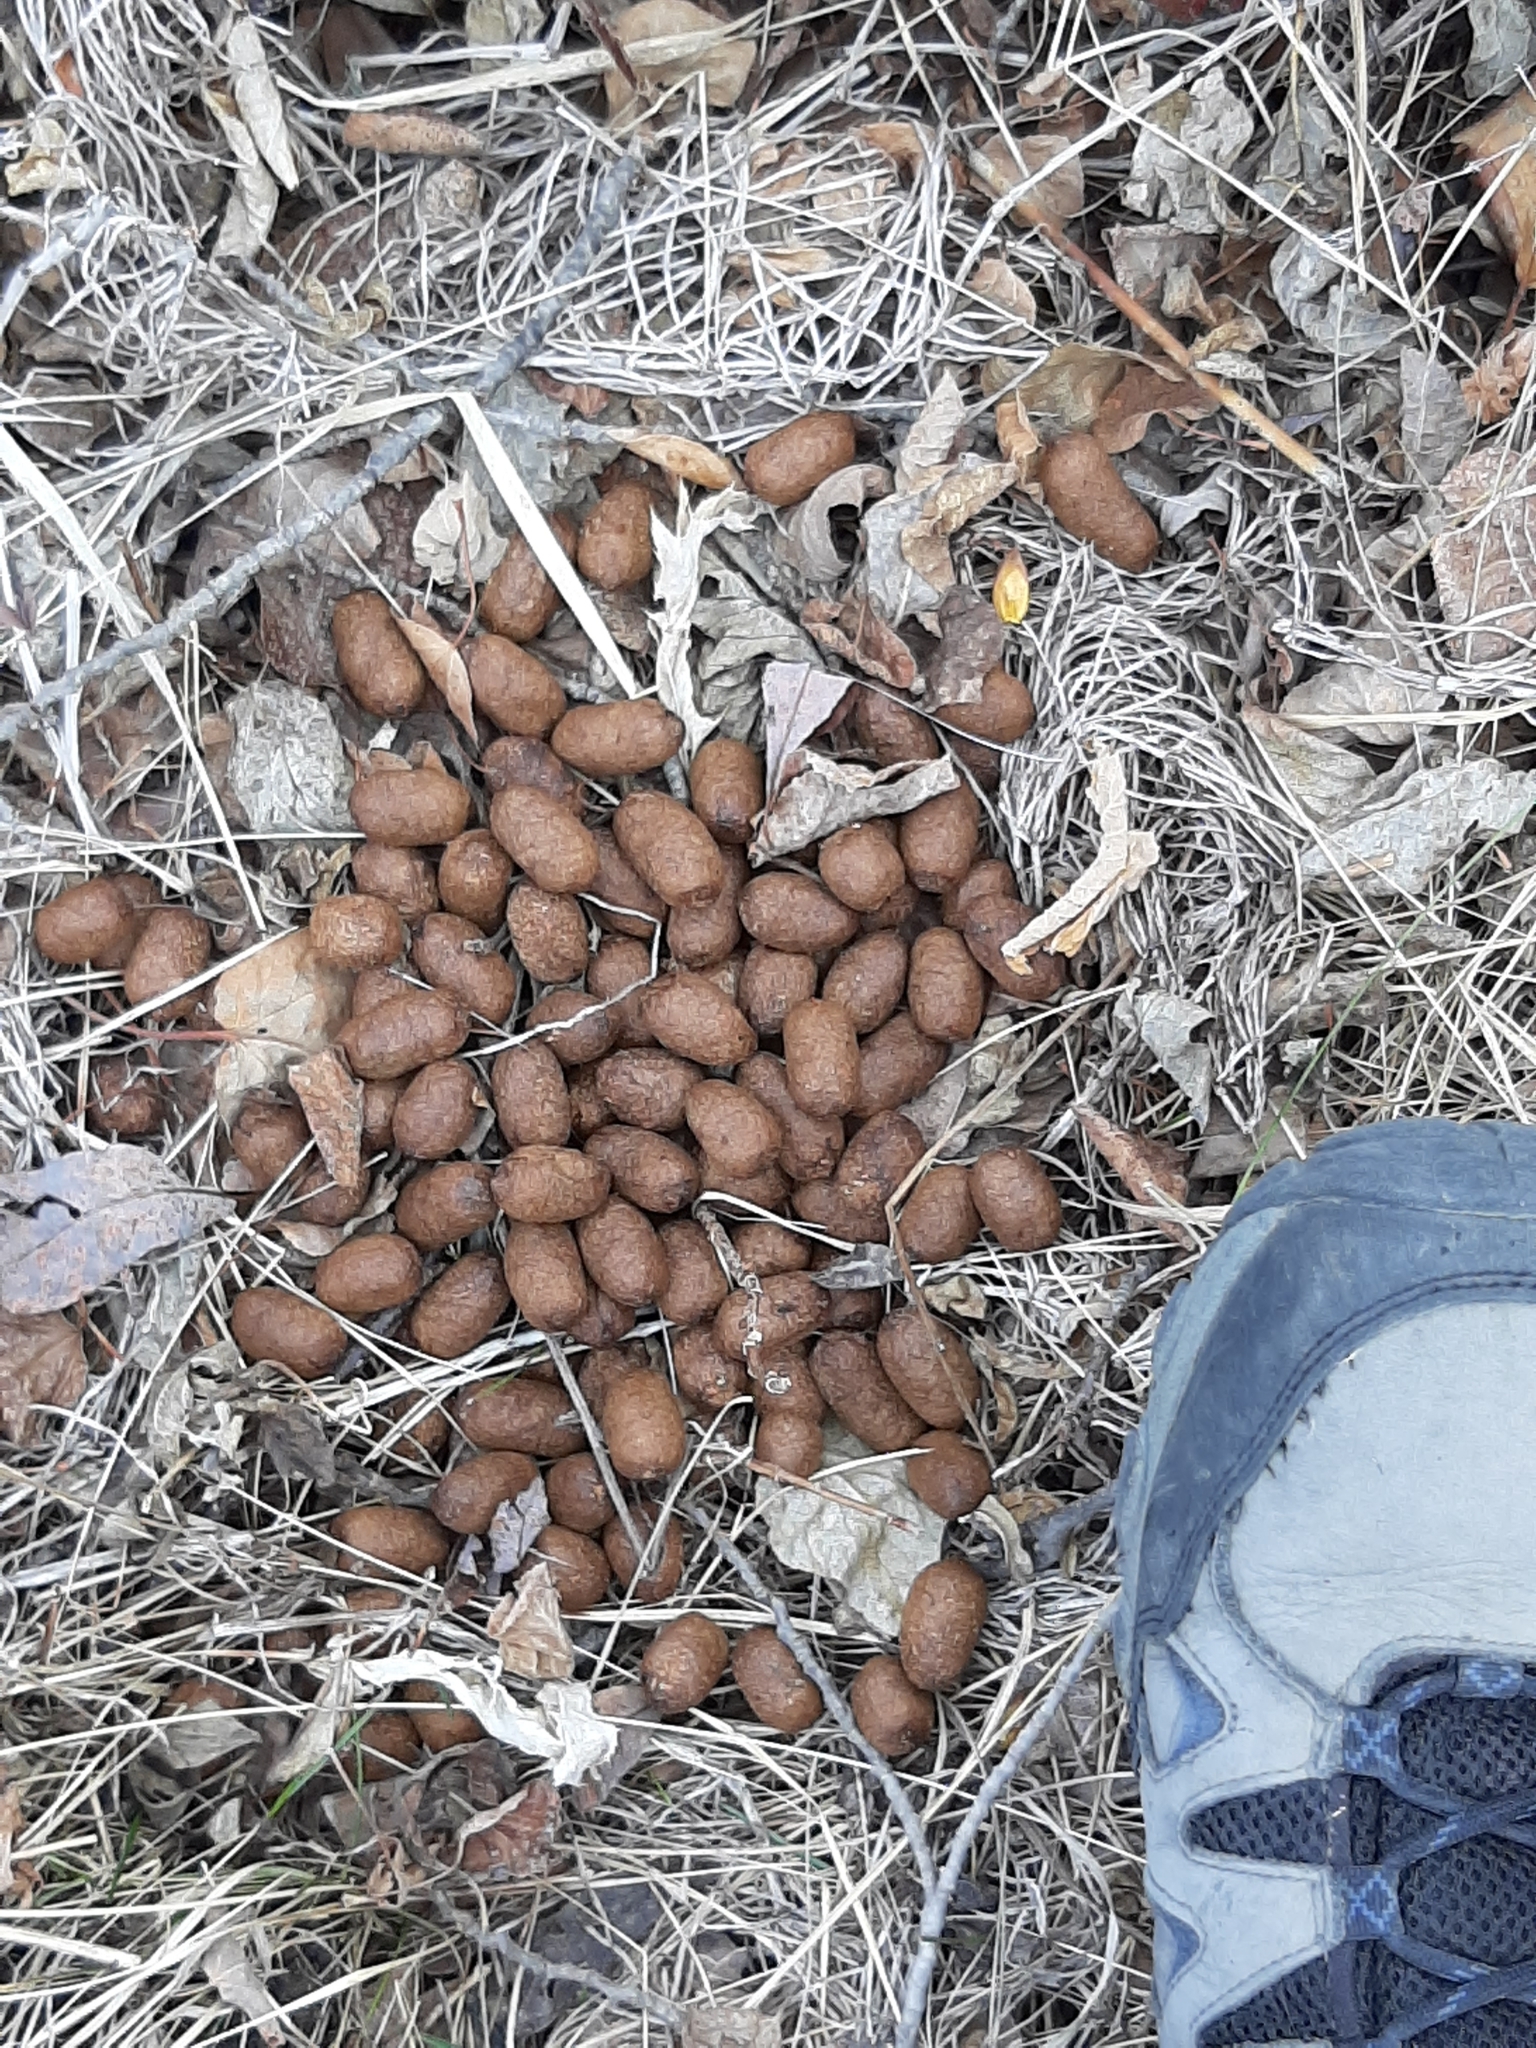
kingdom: Animalia
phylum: Chordata
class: Mammalia
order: Artiodactyla
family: Cervidae
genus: Alces
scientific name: Alces alces
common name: Moose
